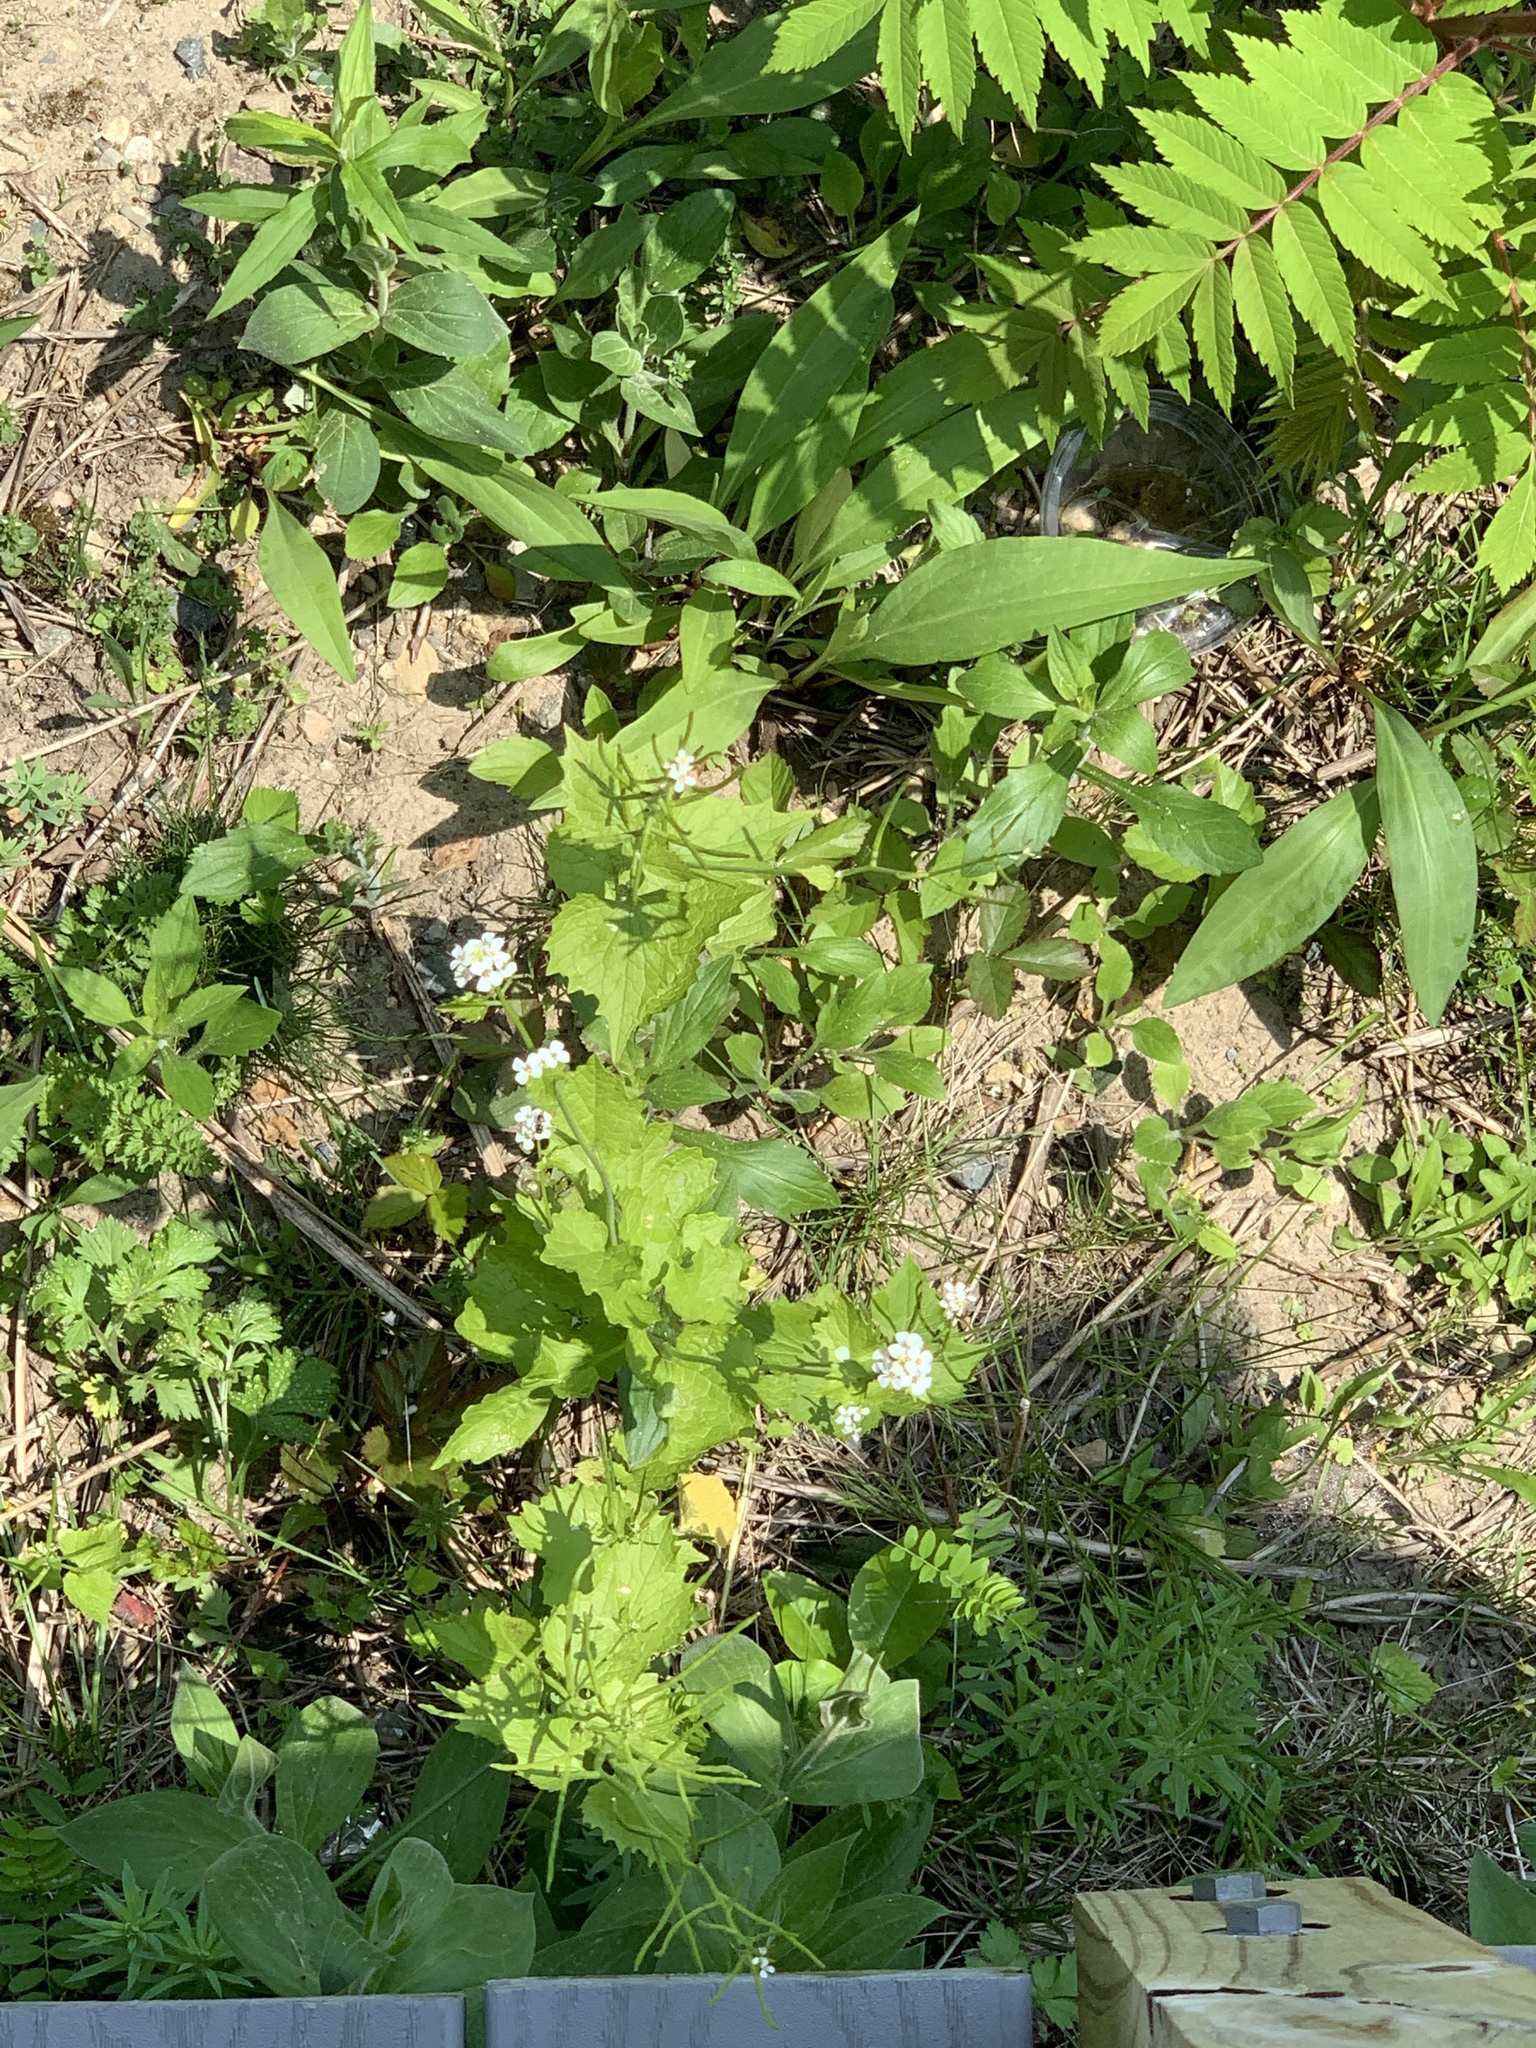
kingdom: Plantae
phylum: Tracheophyta
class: Magnoliopsida
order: Brassicales
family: Brassicaceae
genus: Alliaria
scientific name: Alliaria petiolata
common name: Garlic mustard
